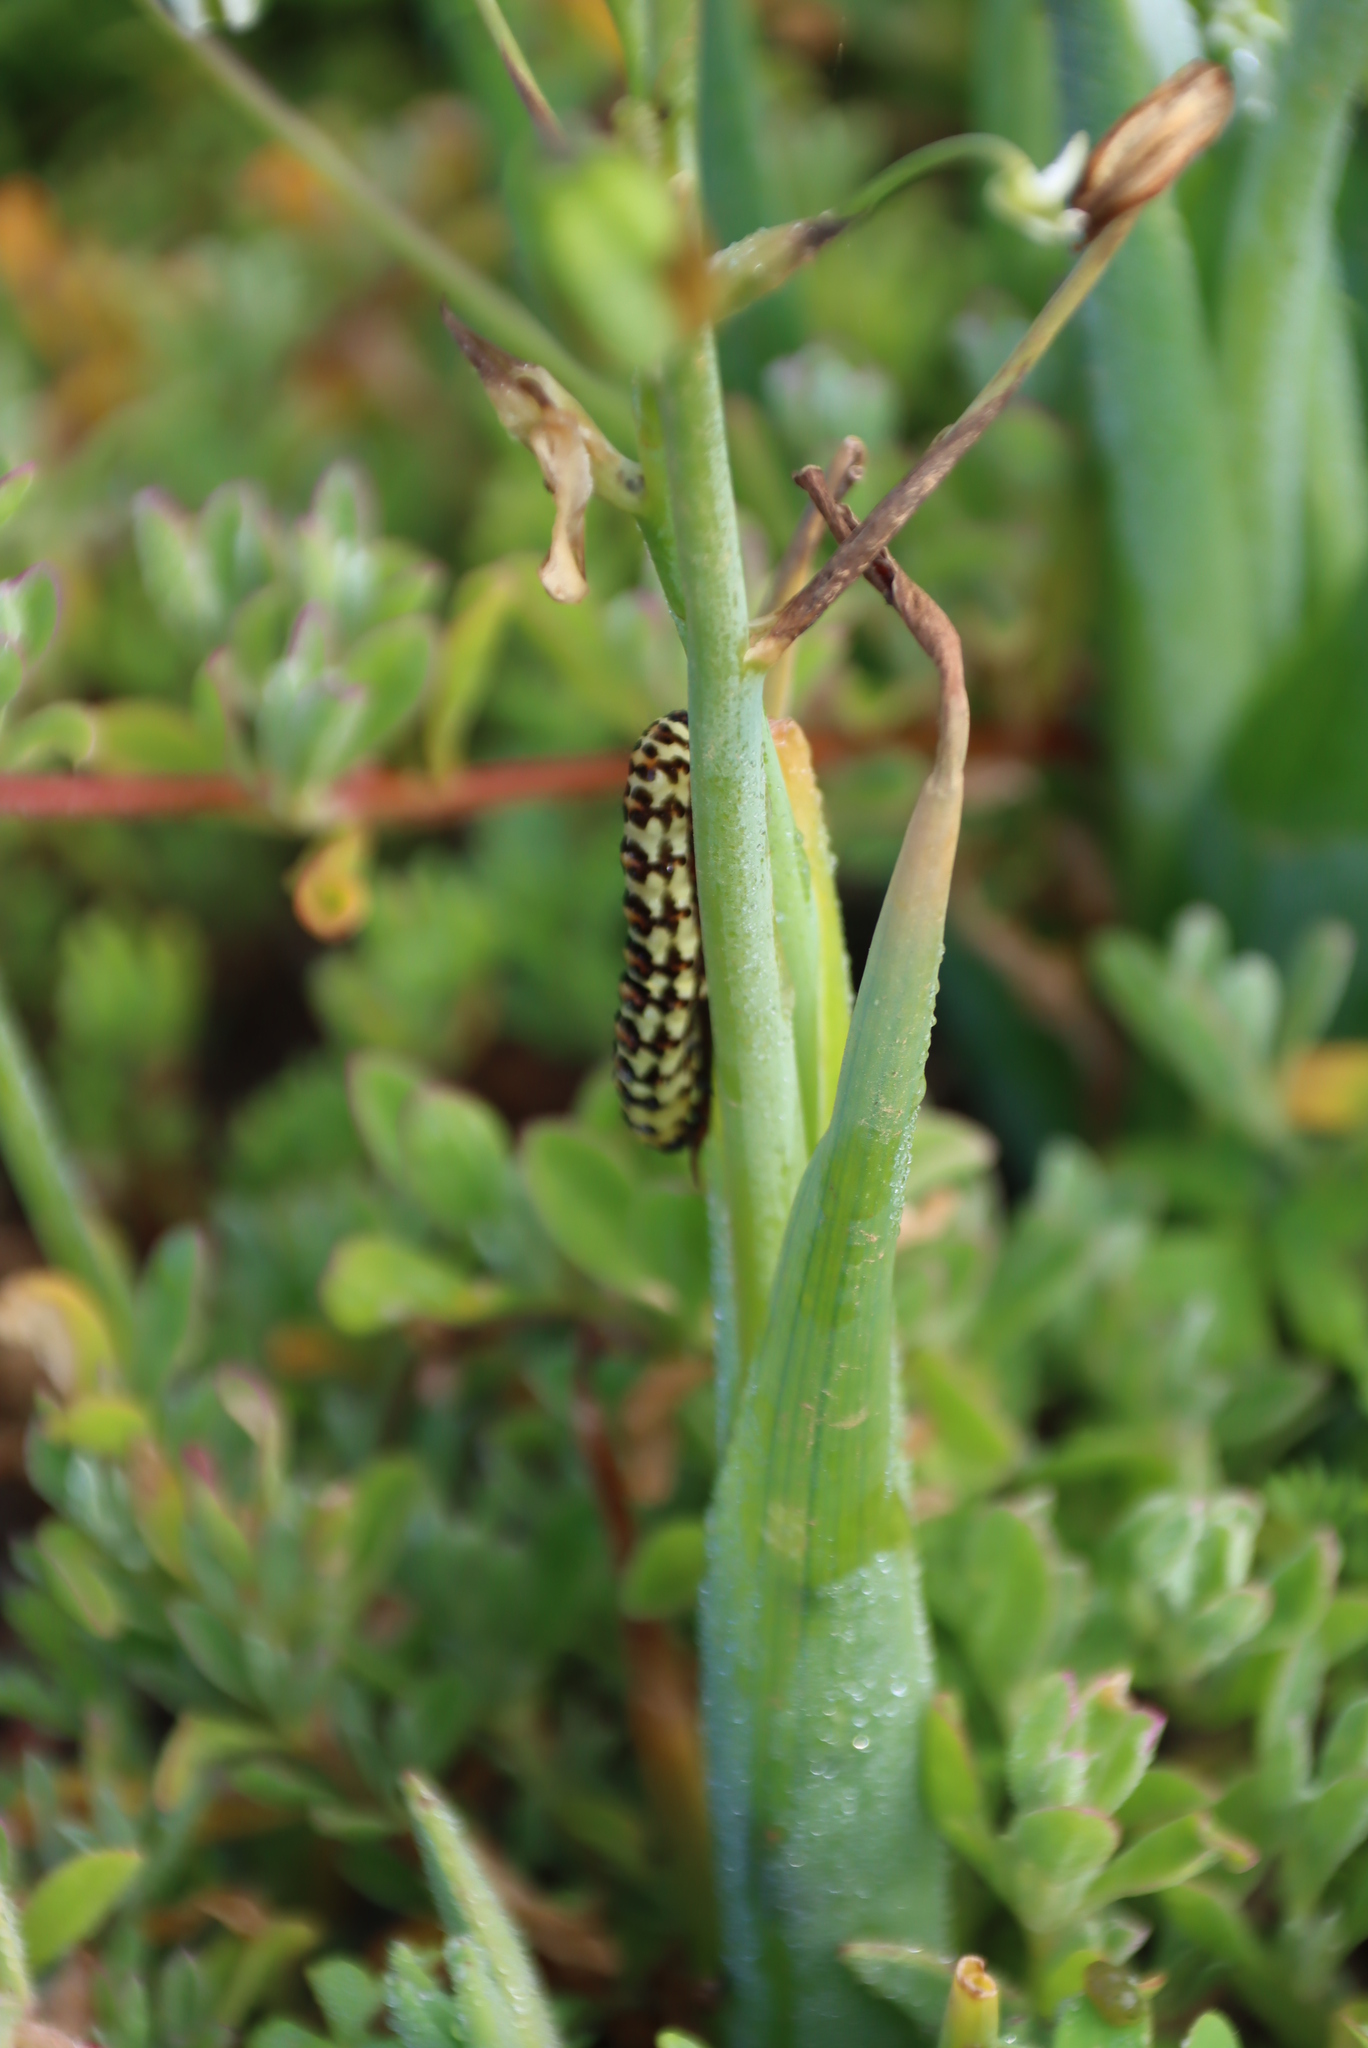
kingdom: Animalia
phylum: Arthropoda
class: Insecta
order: Lepidoptera
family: Noctuidae
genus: Diaphone
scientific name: Diaphone eumela
